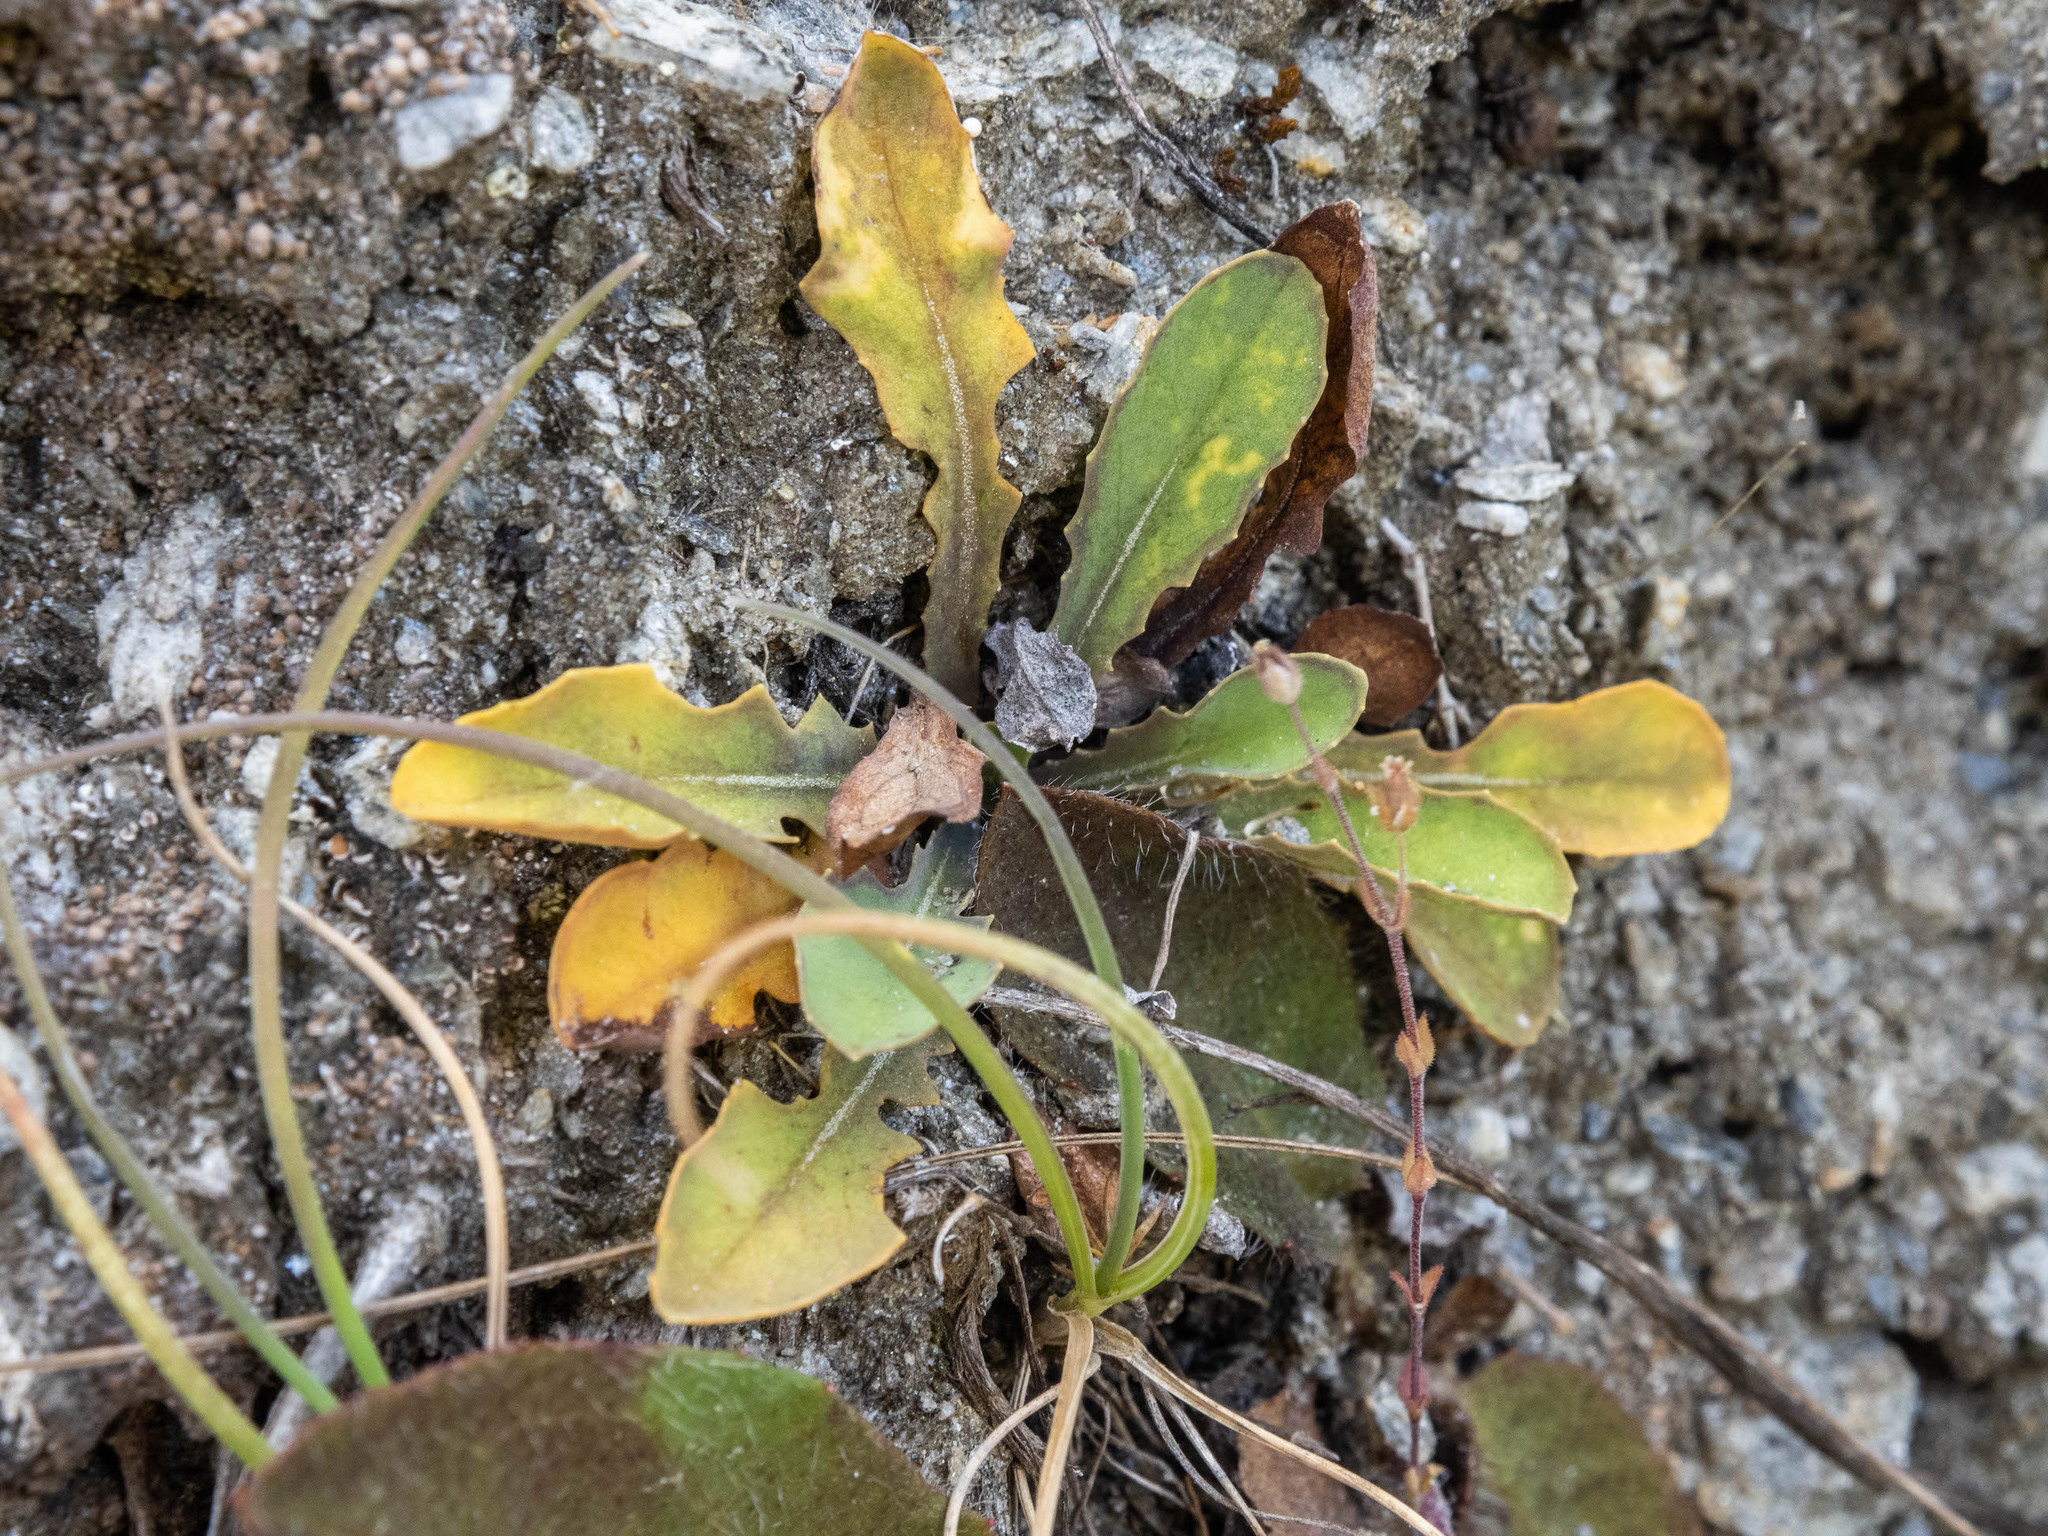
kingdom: Plantae
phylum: Tracheophyta
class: Magnoliopsida
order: Asterales
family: Asteraceae
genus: Sonchus
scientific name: Sonchus novae-zelandiae
